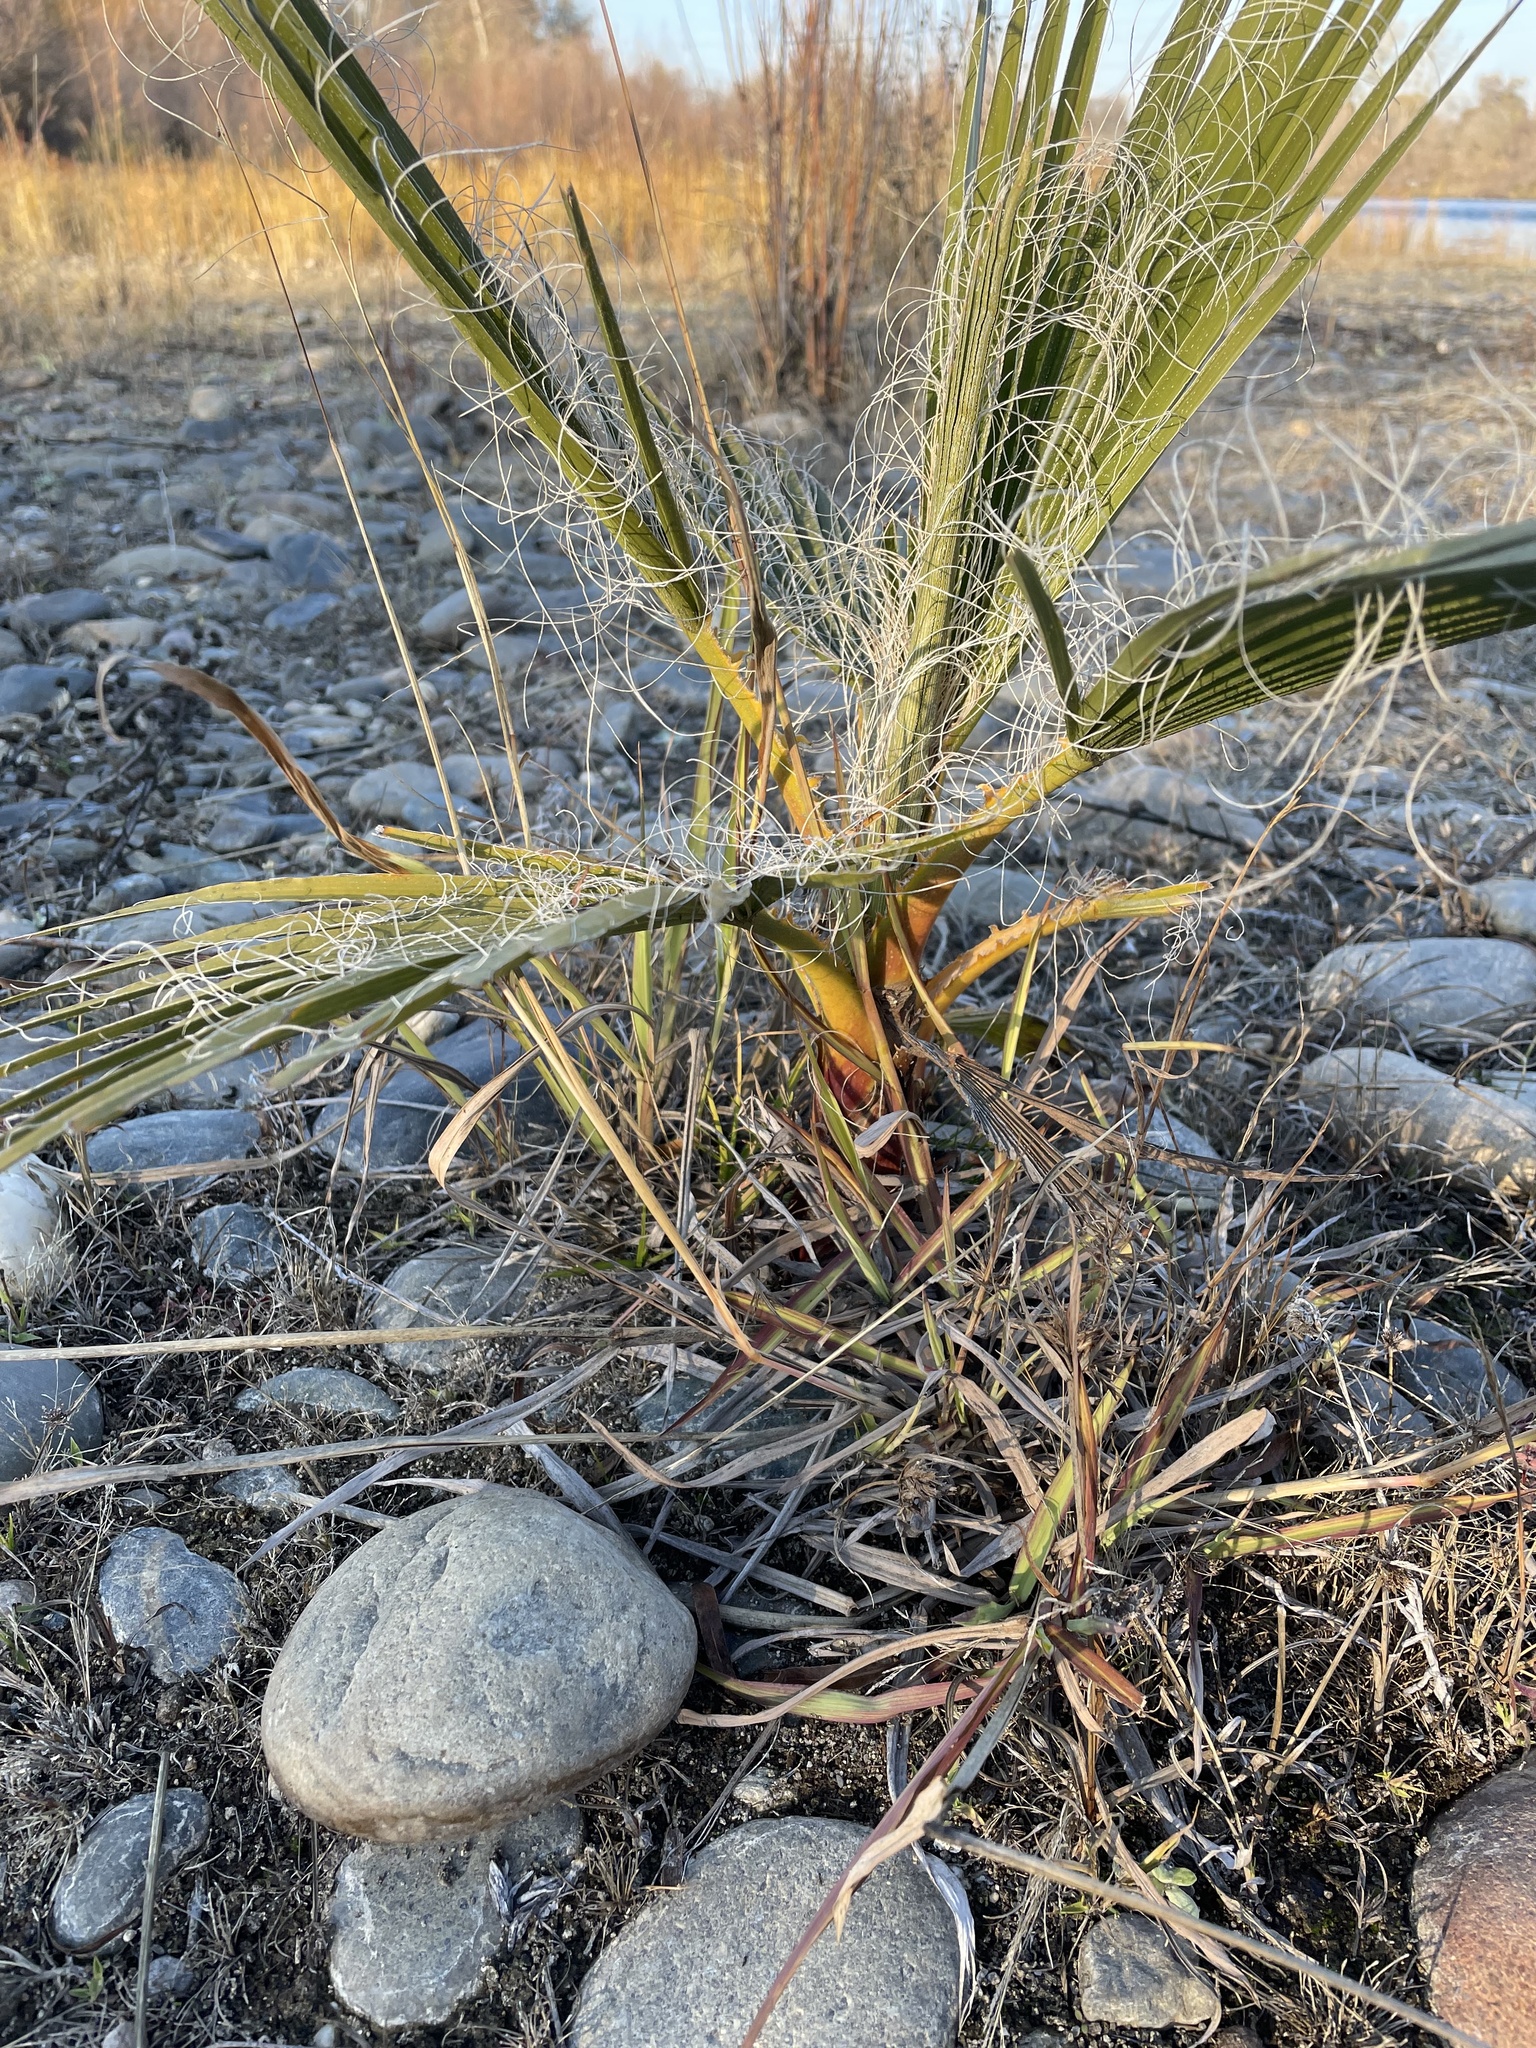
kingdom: Plantae
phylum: Tracheophyta
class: Liliopsida
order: Arecales
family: Arecaceae
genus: Washingtonia
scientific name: Washingtonia robusta
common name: Mexican fan palm
